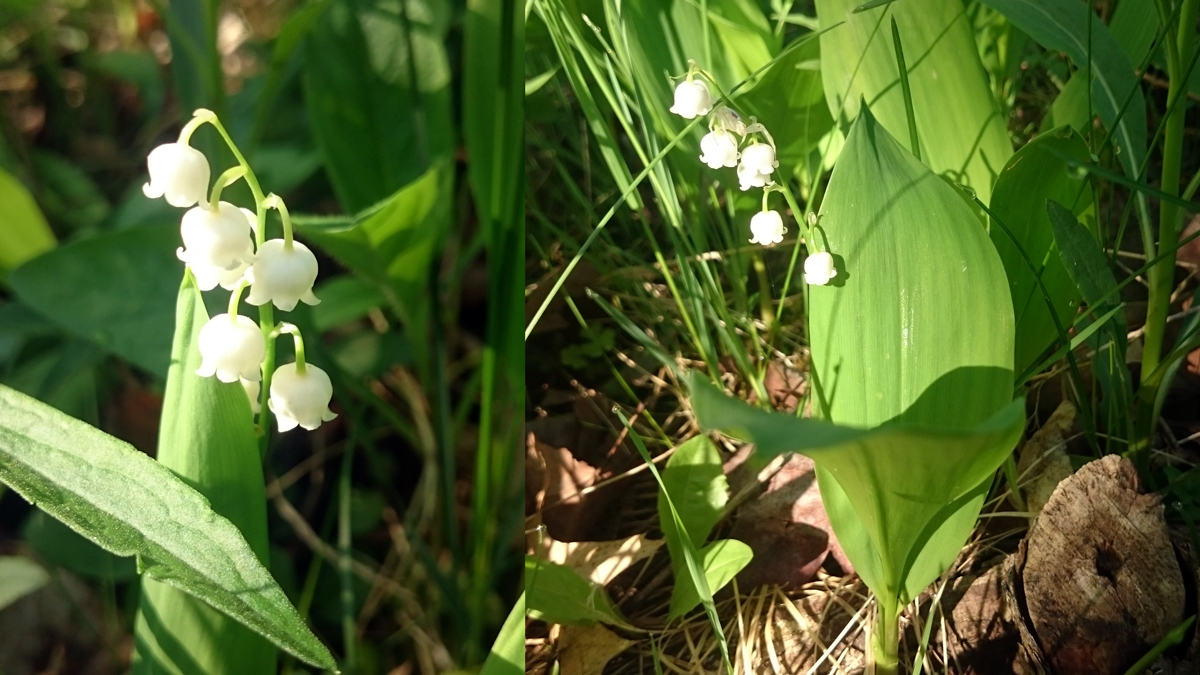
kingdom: Plantae
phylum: Tracheophyta
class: Liliopsida
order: Asparagales
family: Asparagaceae
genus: Convallaria
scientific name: Convallaria majalis
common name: Lily-of-the-valley
